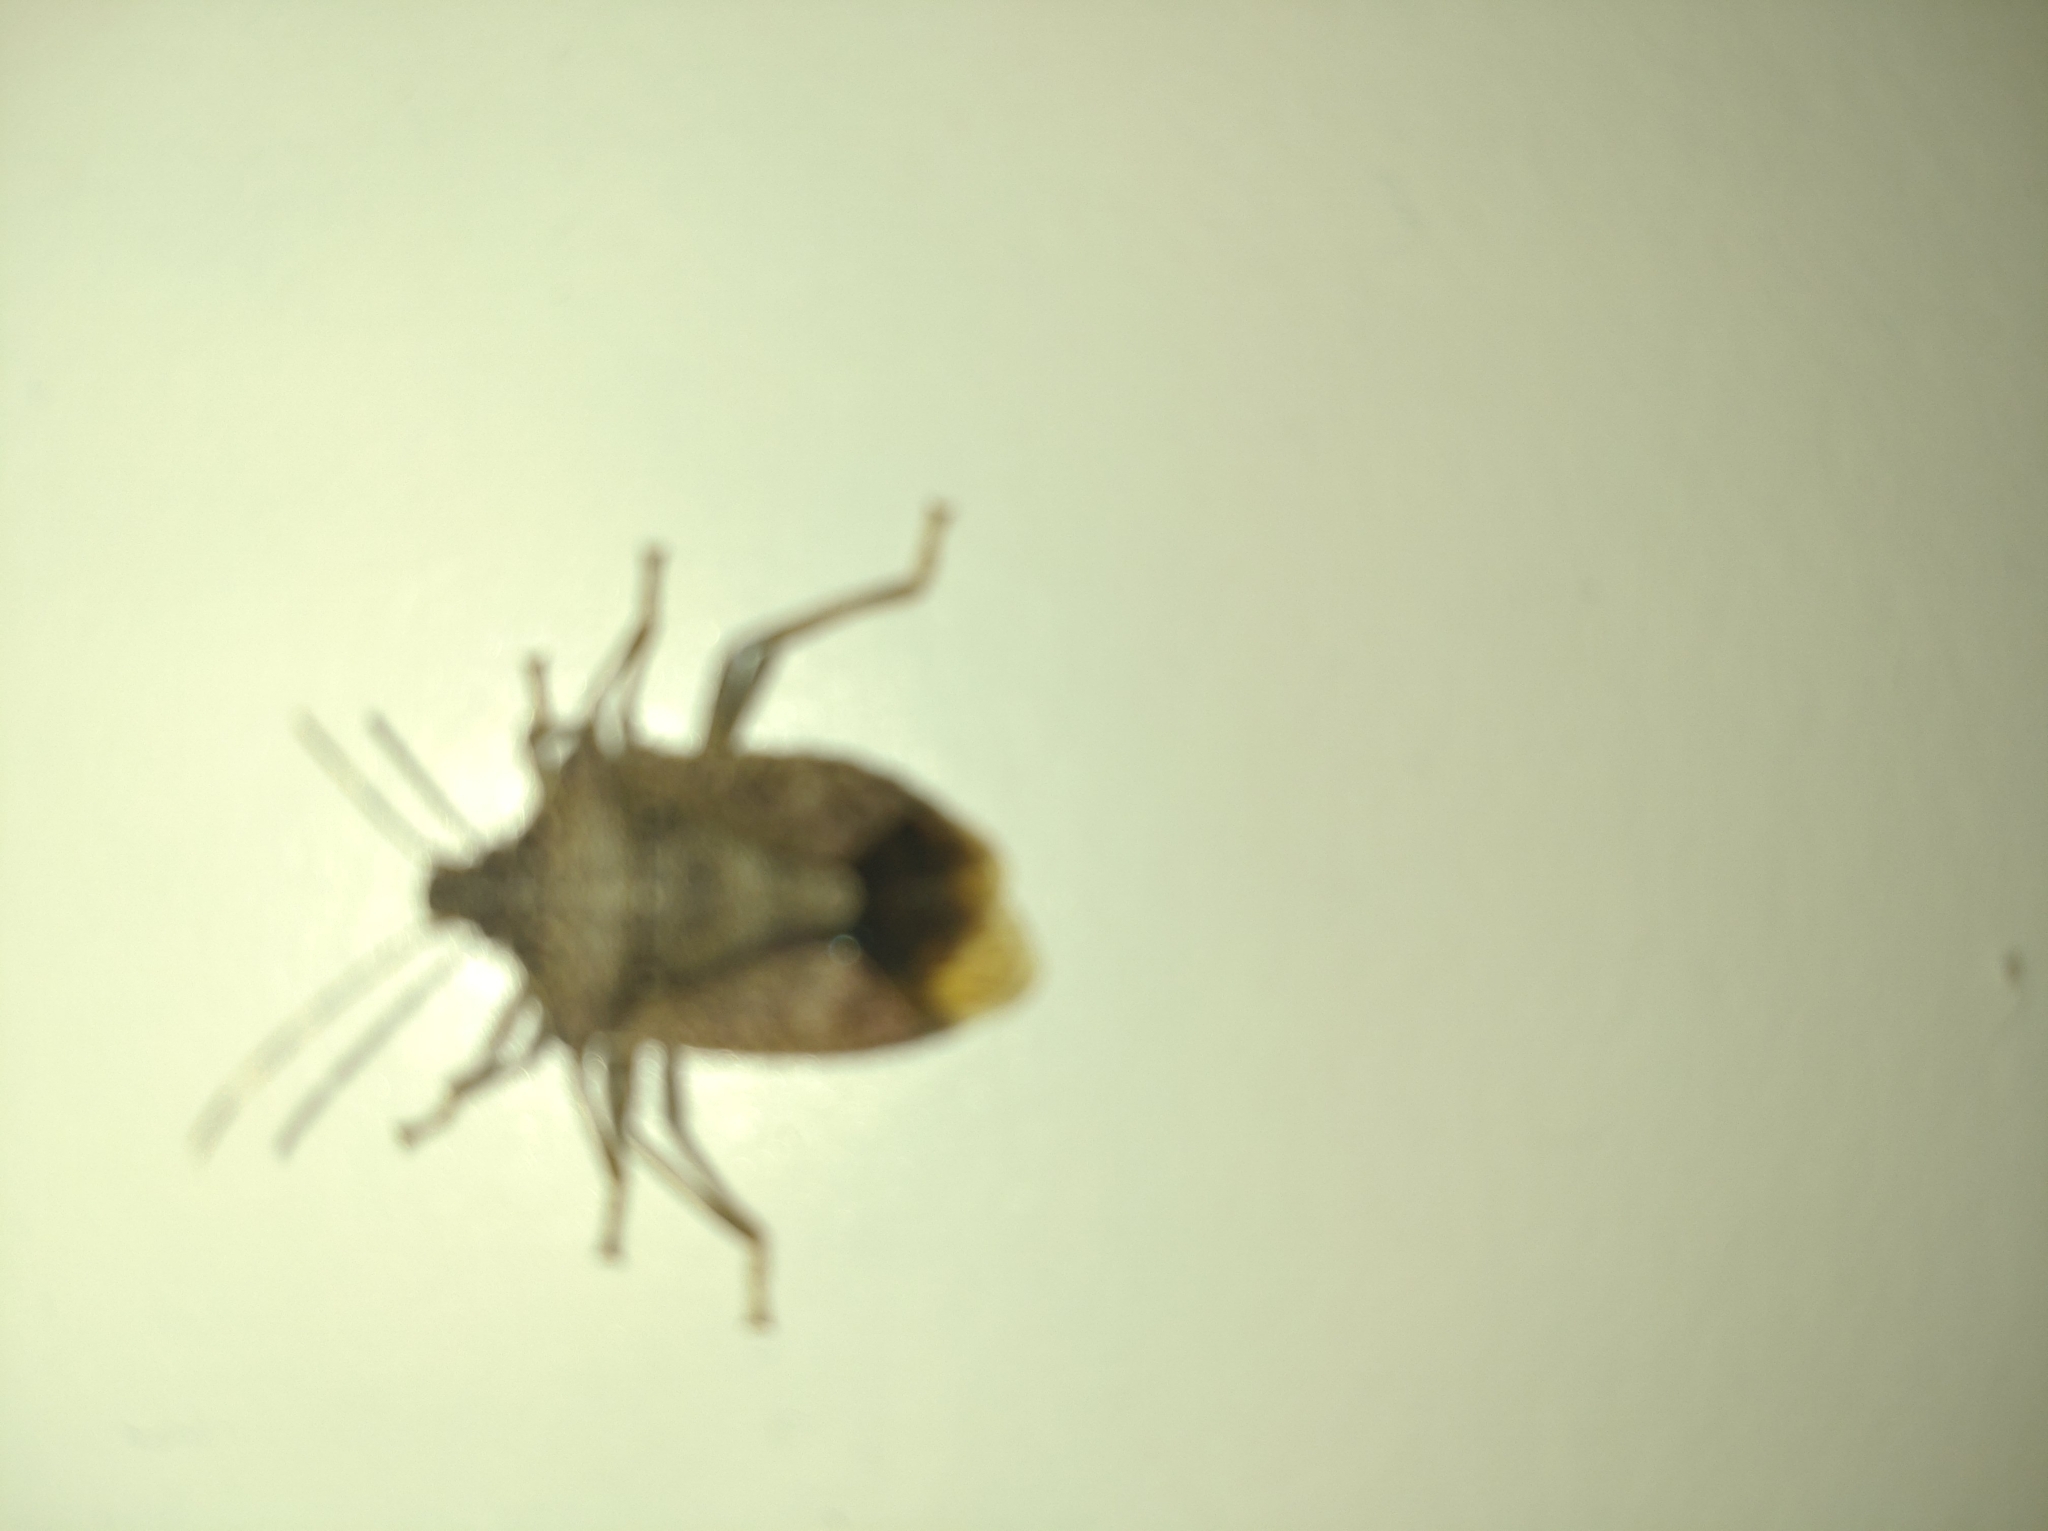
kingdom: Animalia
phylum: Arthropoda
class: Insecta
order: Hemiptera
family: Pentatomidae
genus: Halyomorpha
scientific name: Halyomorpha halys
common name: Brown marmorated stink bug
